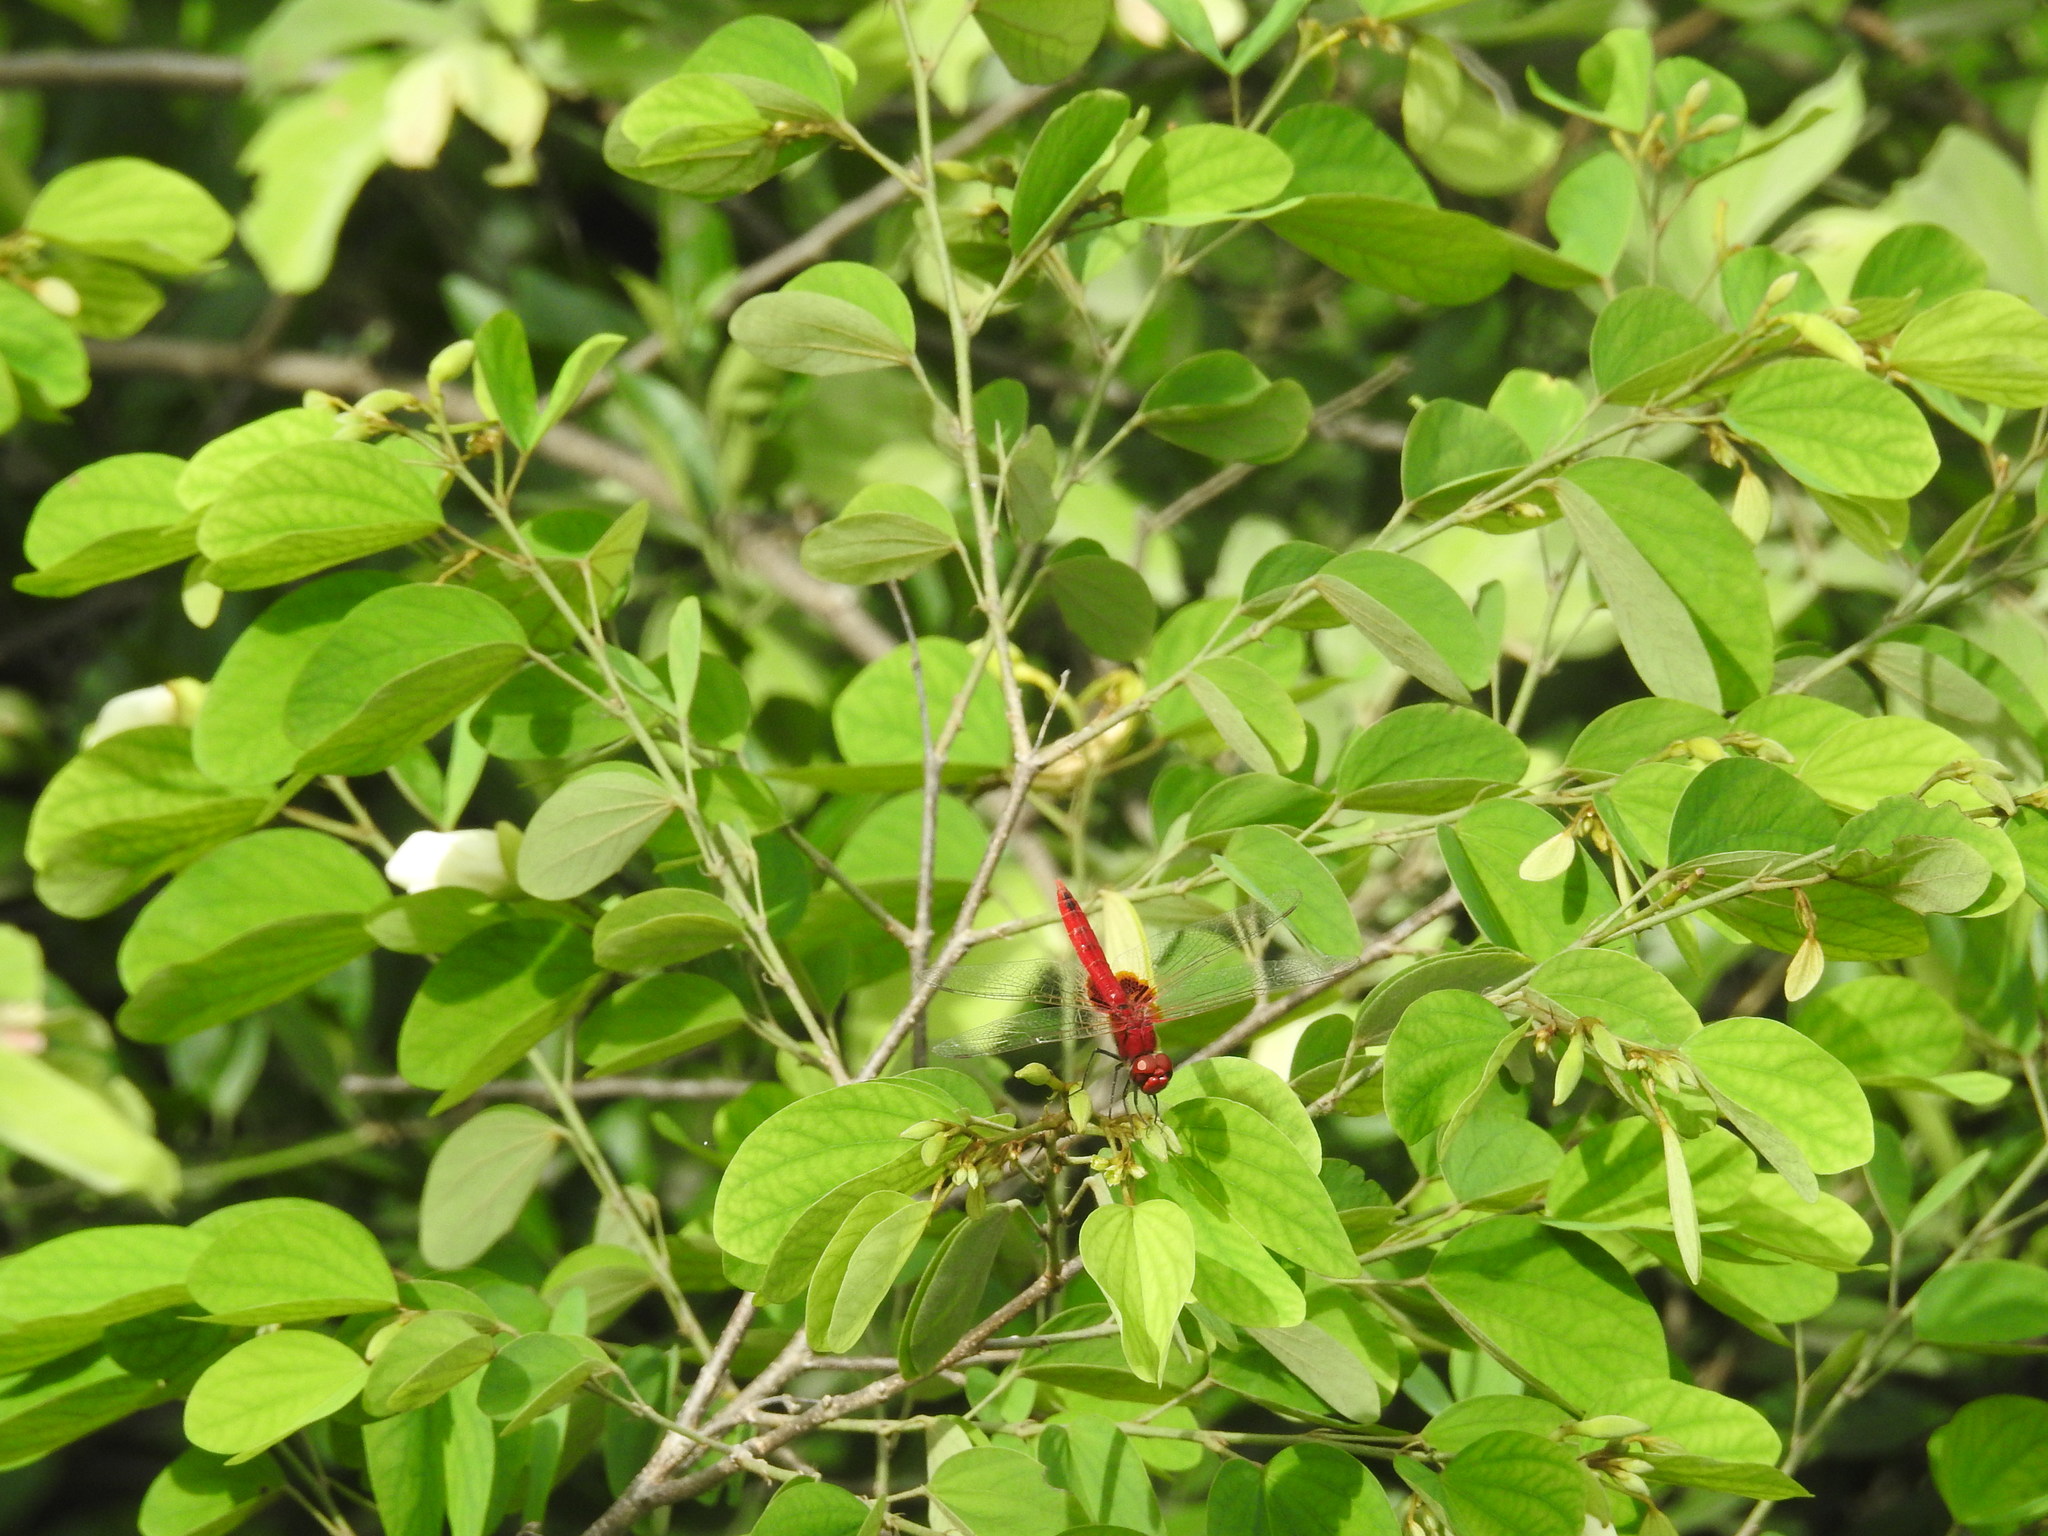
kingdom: Animalia
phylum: Arthropoda
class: Insecta
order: Odonata
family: Libellulidae
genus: Urothemis
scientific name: Urothemis signata
